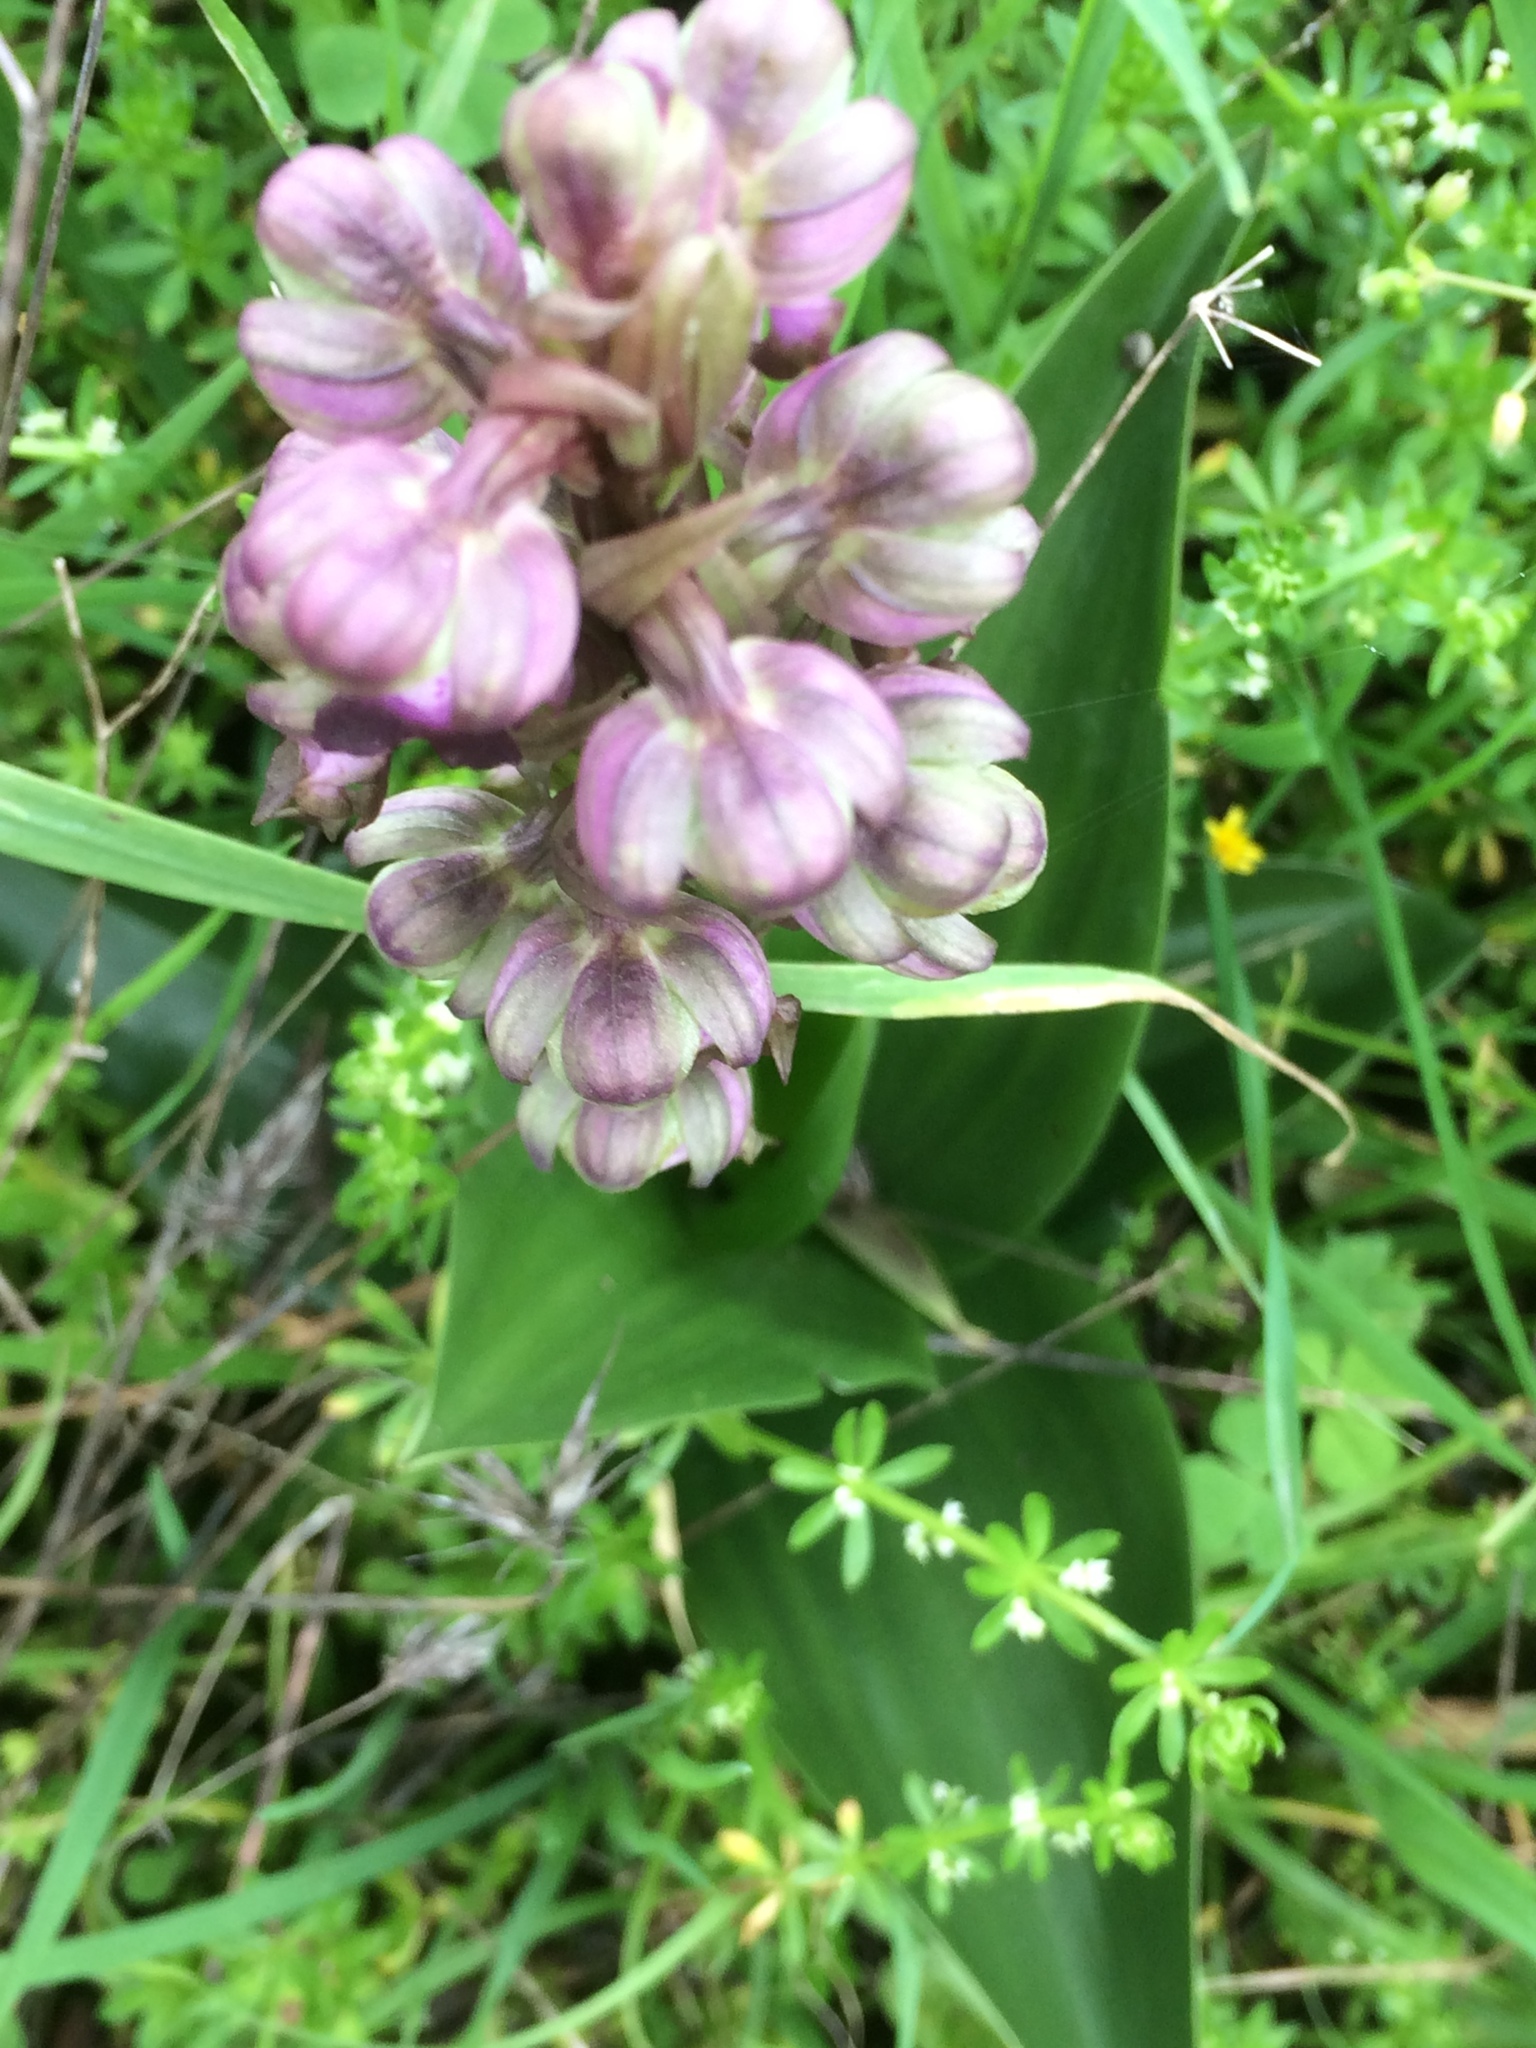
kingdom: Plantae
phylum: Tracheophyta
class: Liliopsida
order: Asparagales
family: Orchidaceae
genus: Himantoglossum
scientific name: Himantoglossum robertianum
